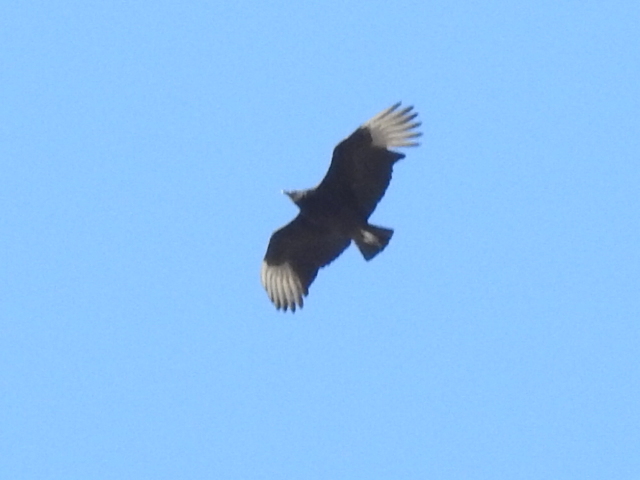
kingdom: Animalia
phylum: Chordata
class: Aves
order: Accipitriformes
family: Cathartidae
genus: Coragyps
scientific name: Coragyps atratus
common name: Black vulture
